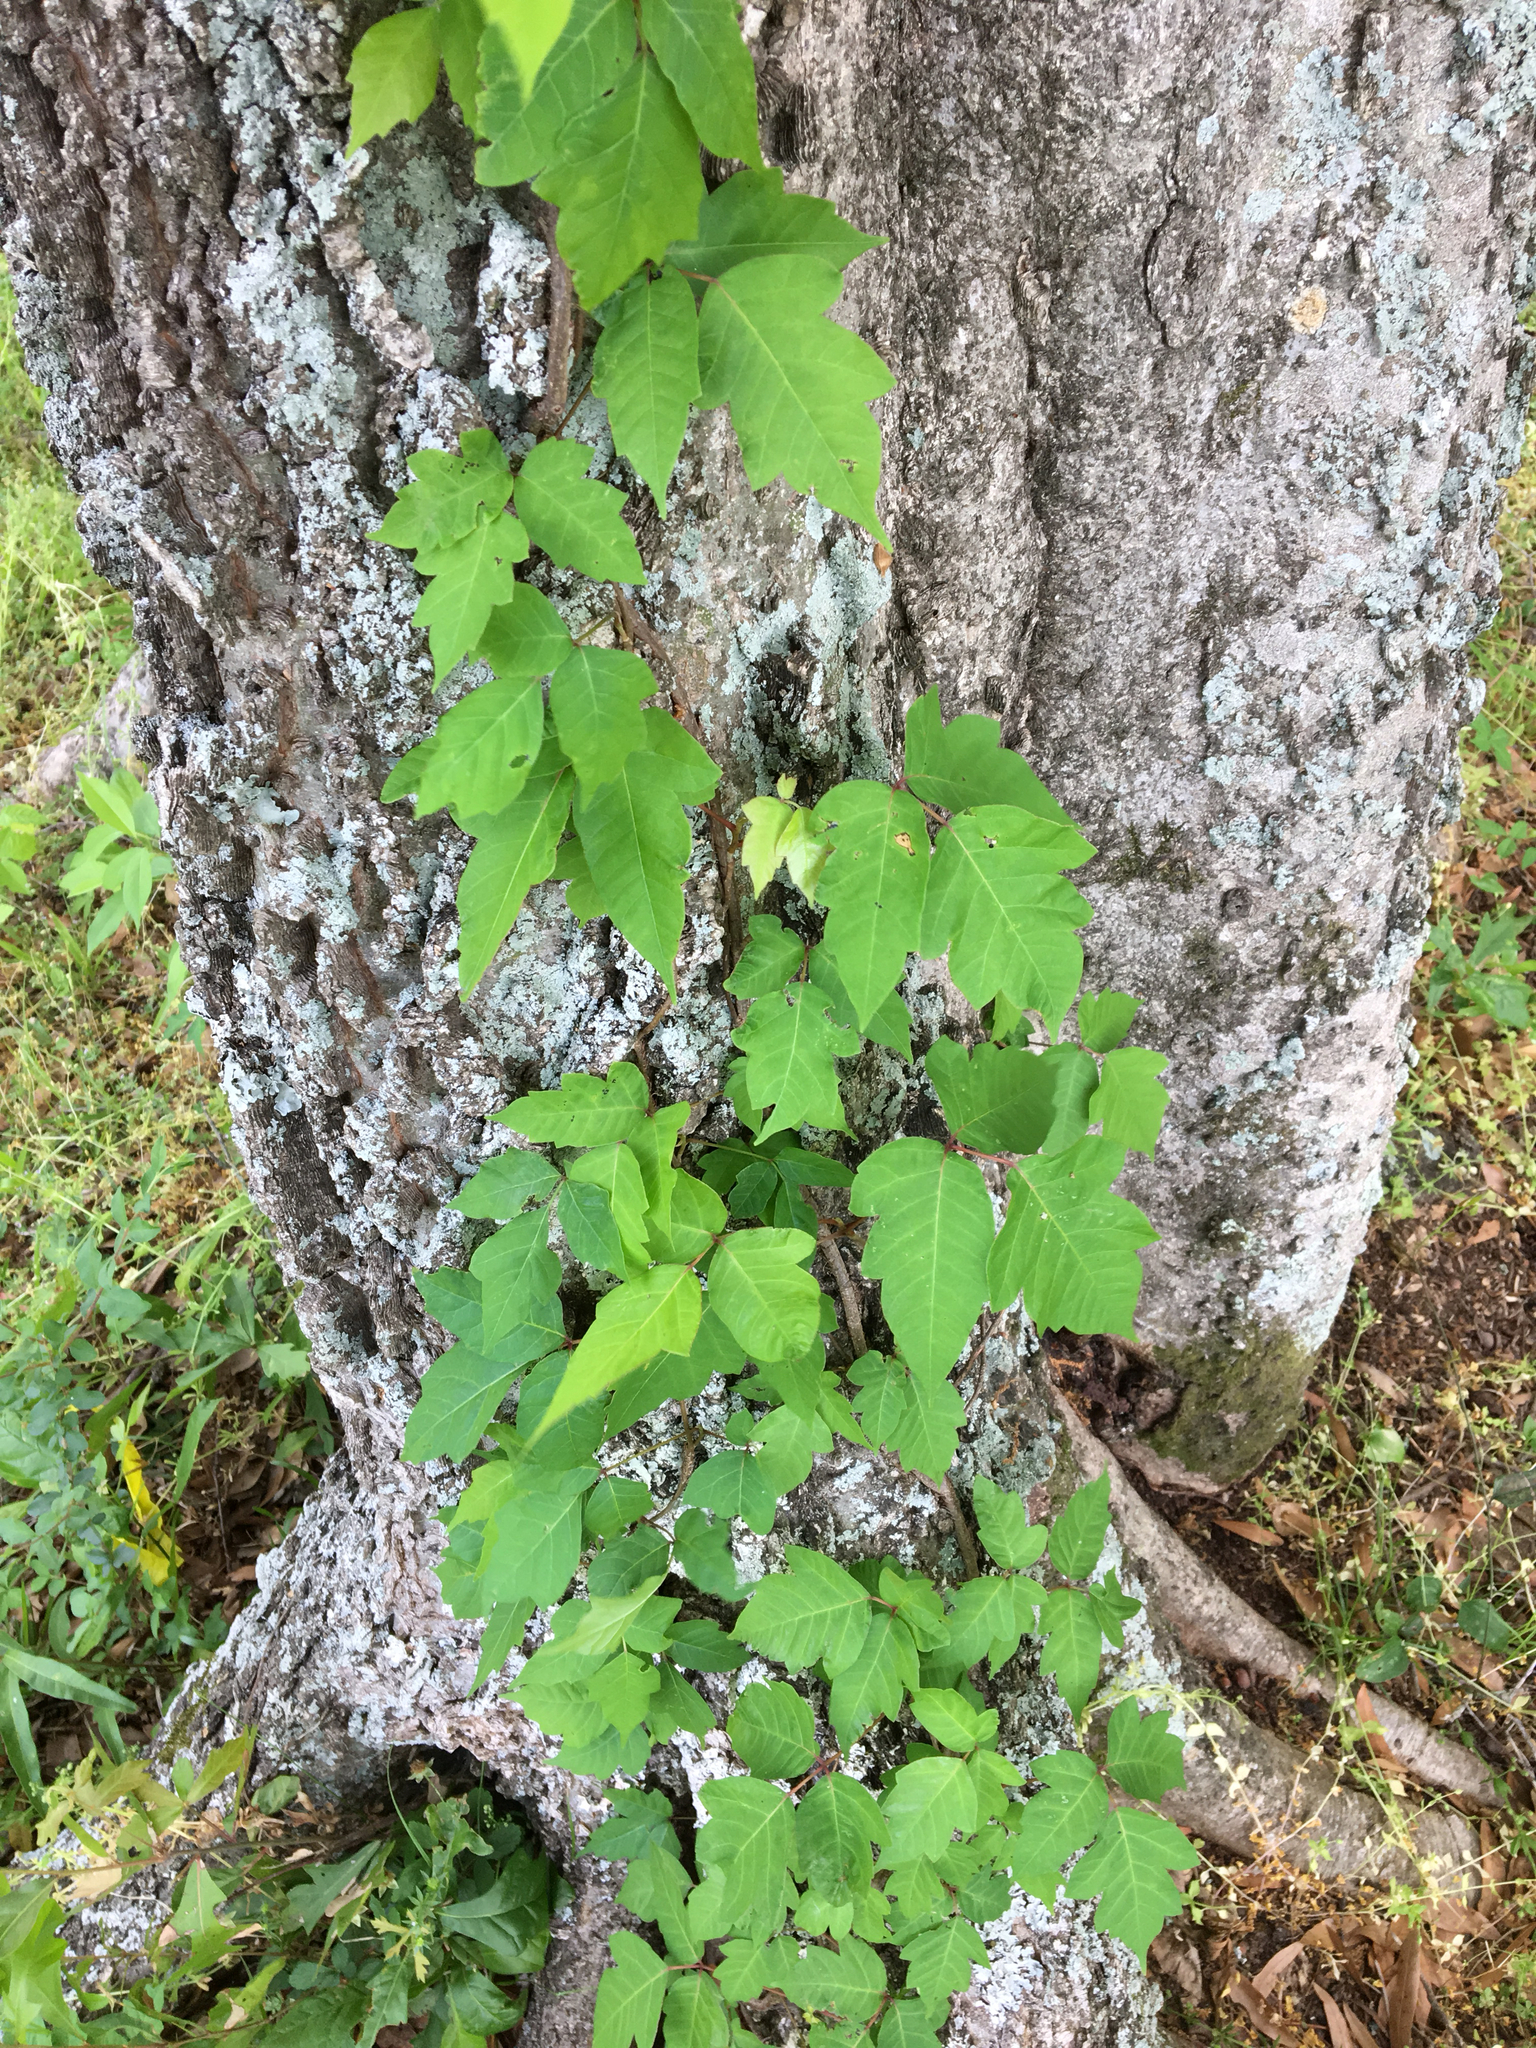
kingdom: Plantae
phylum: Tracheophyta
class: Magnoliopsida
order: Sapindales
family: Anacardiaceae
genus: Toxicodendron
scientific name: Toxicodendron radicans
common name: Poison ivy
